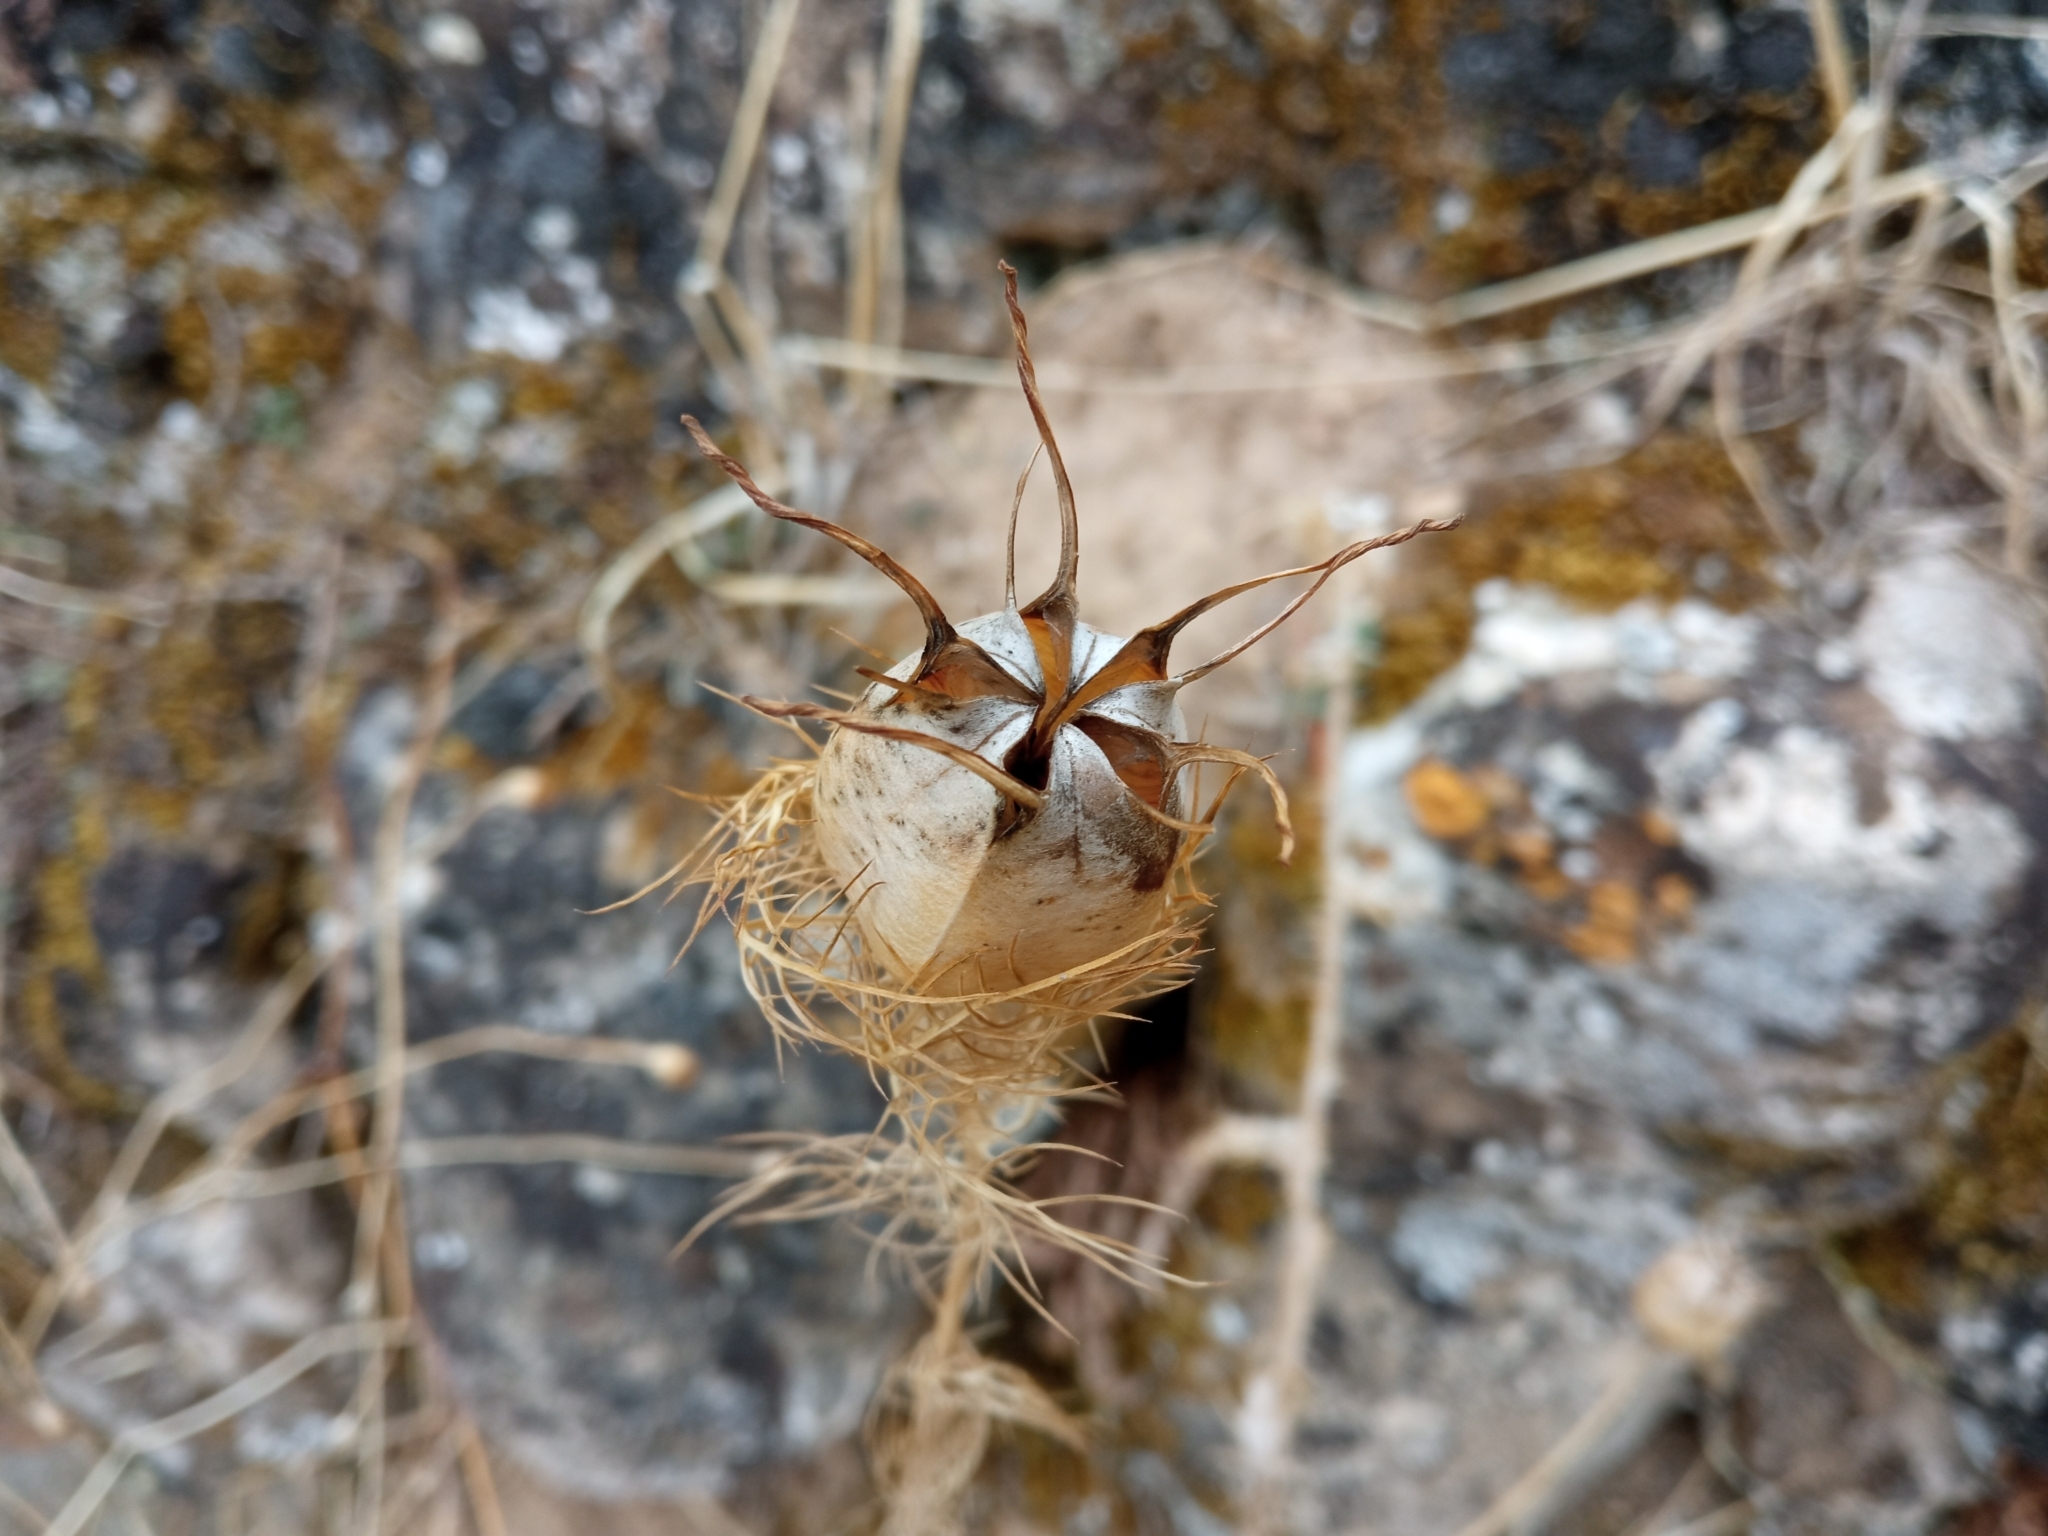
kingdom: Plantae
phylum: Tracheophyta
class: Magnoliopsida
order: Ranunculales
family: Ranunculaceae
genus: Nigella
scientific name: Nigella damascena
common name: Love-in-a-mist
